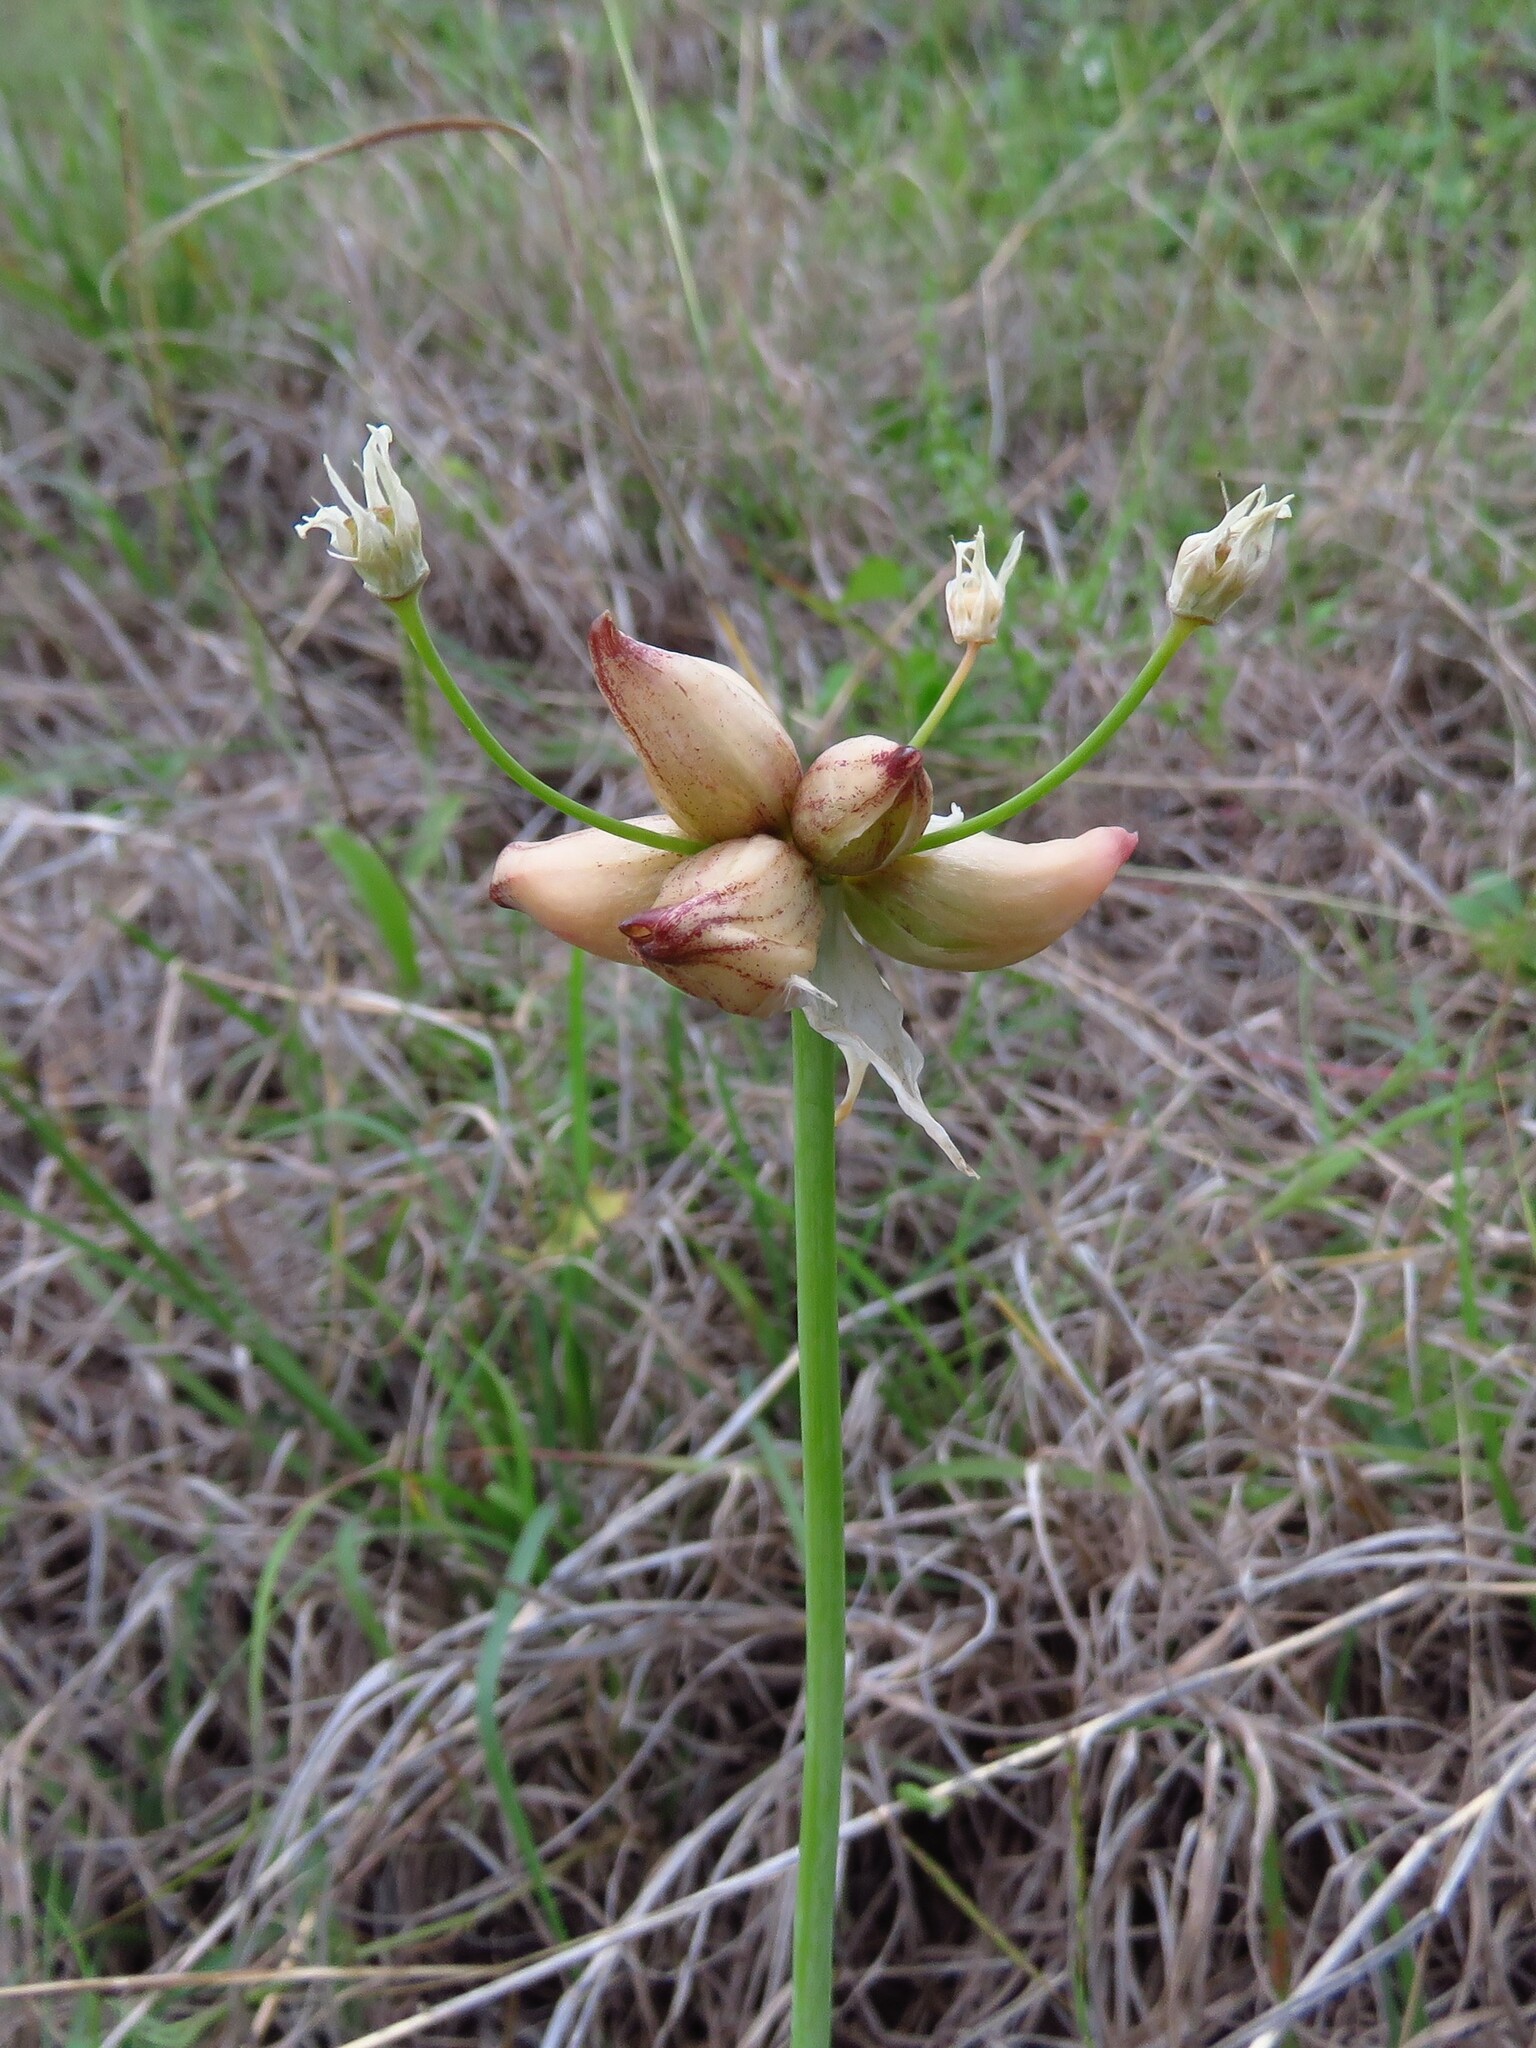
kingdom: Plantae
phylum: Tracheophyta
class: Liliopsida
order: Asparagales
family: Amaryllidaceae
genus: Allium
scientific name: Allium canadense
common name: Meadow garlic
